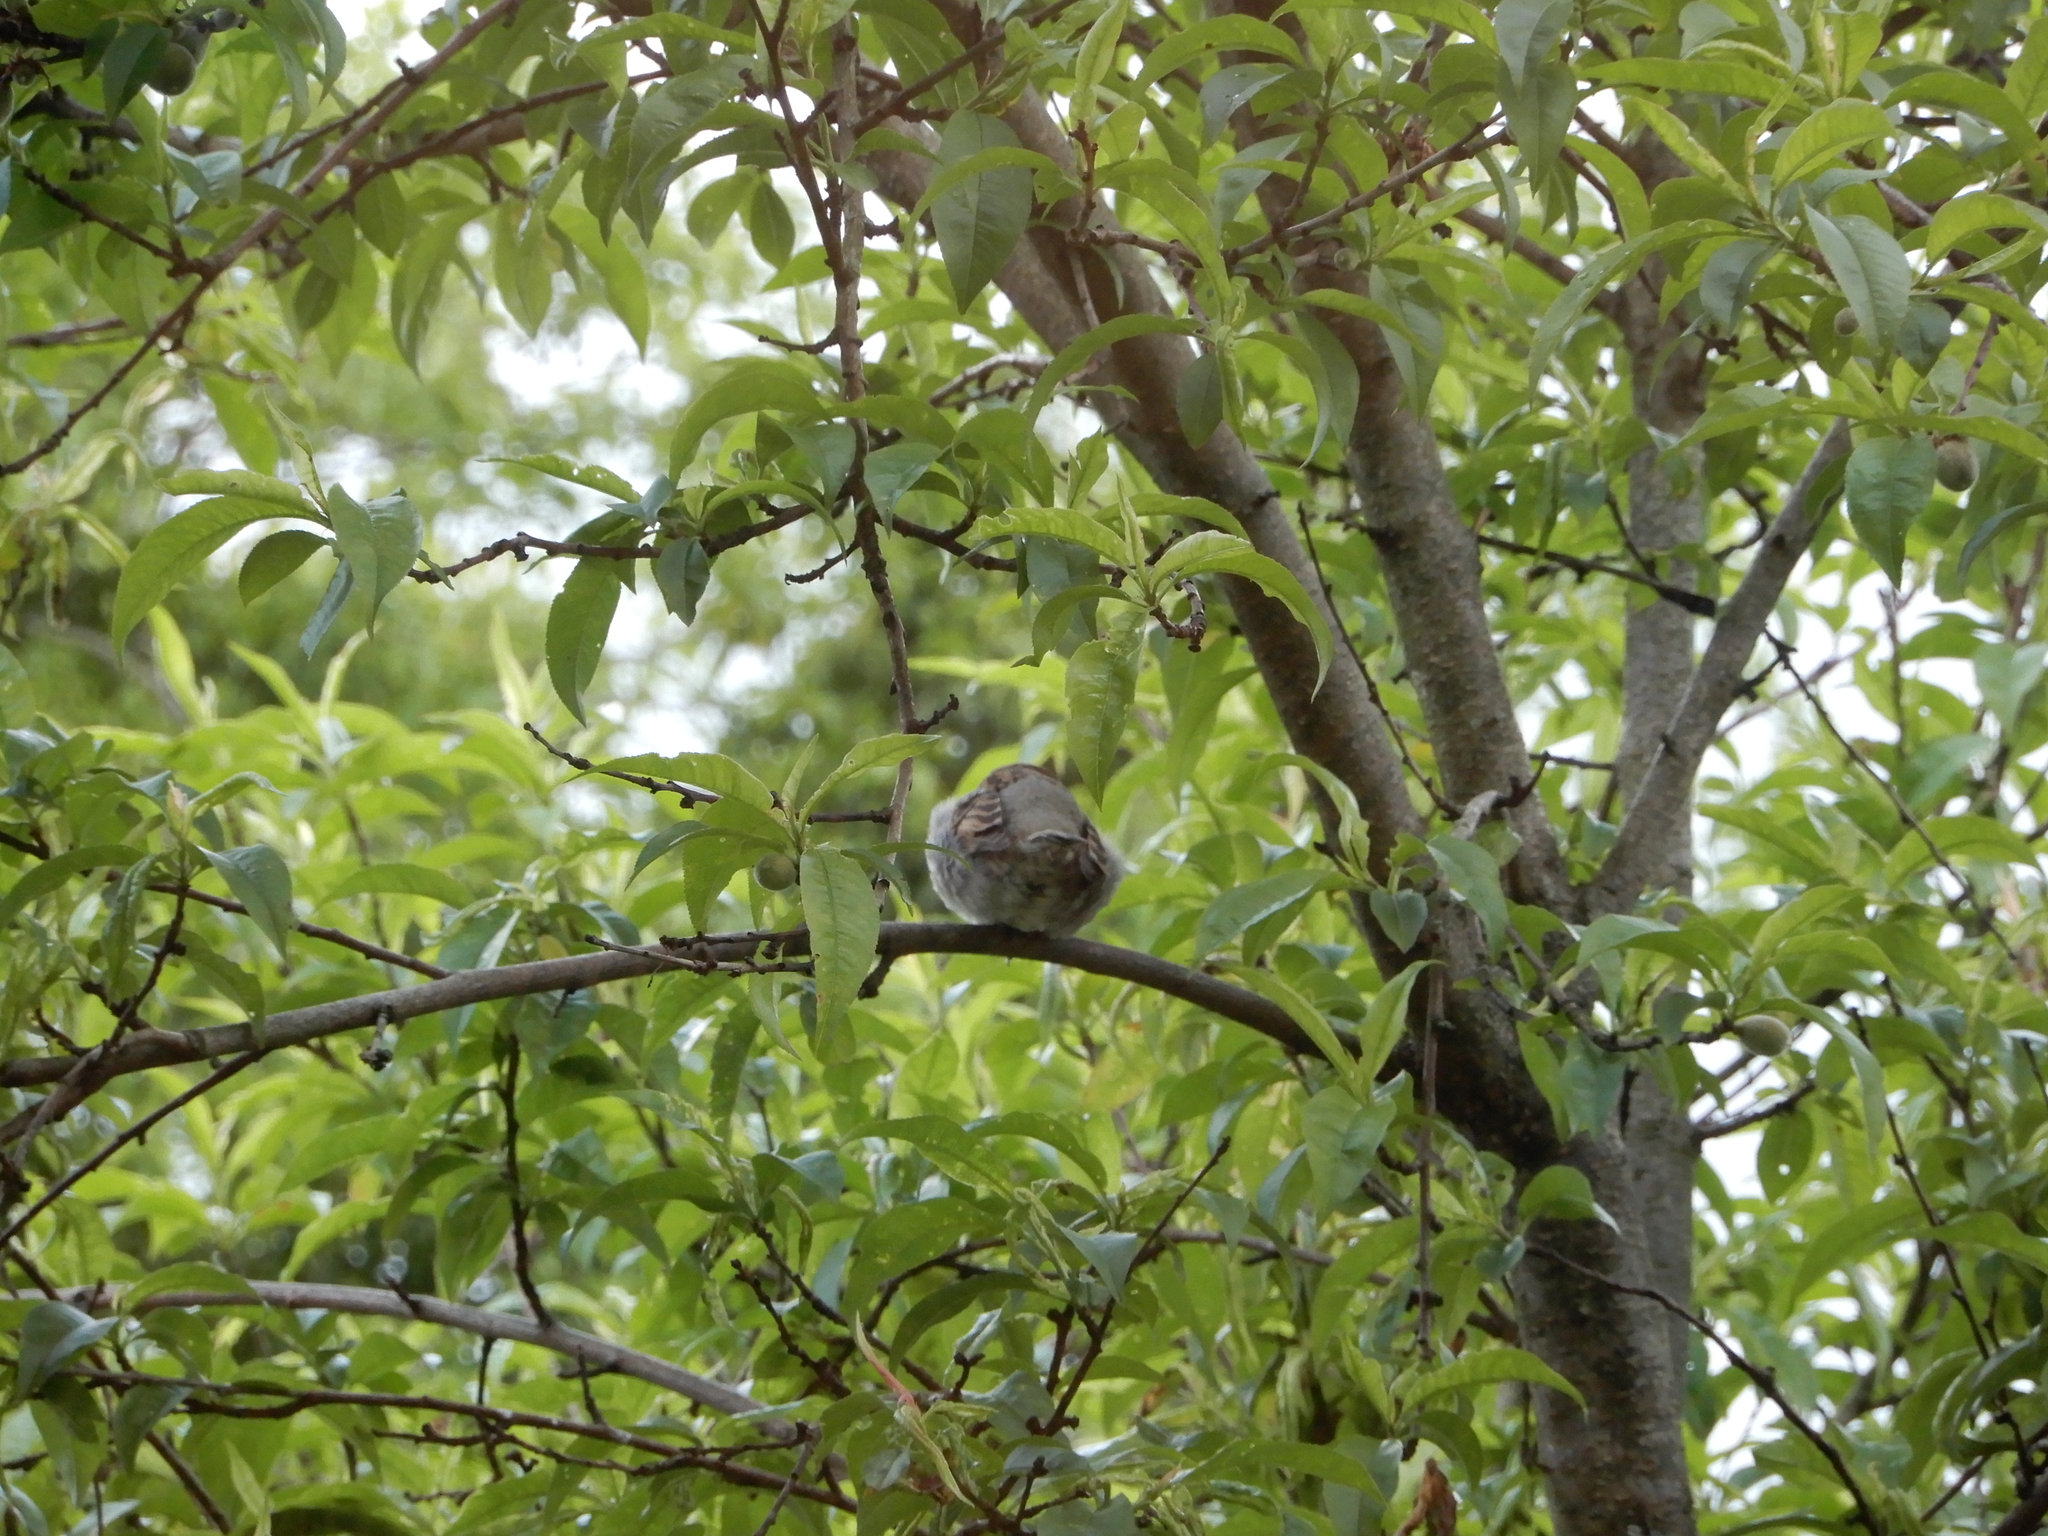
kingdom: Animalia
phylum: Chordata
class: Aves
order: Passeriformes
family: Passeridae
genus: Passer
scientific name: Passer domesticus
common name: House sparrow
